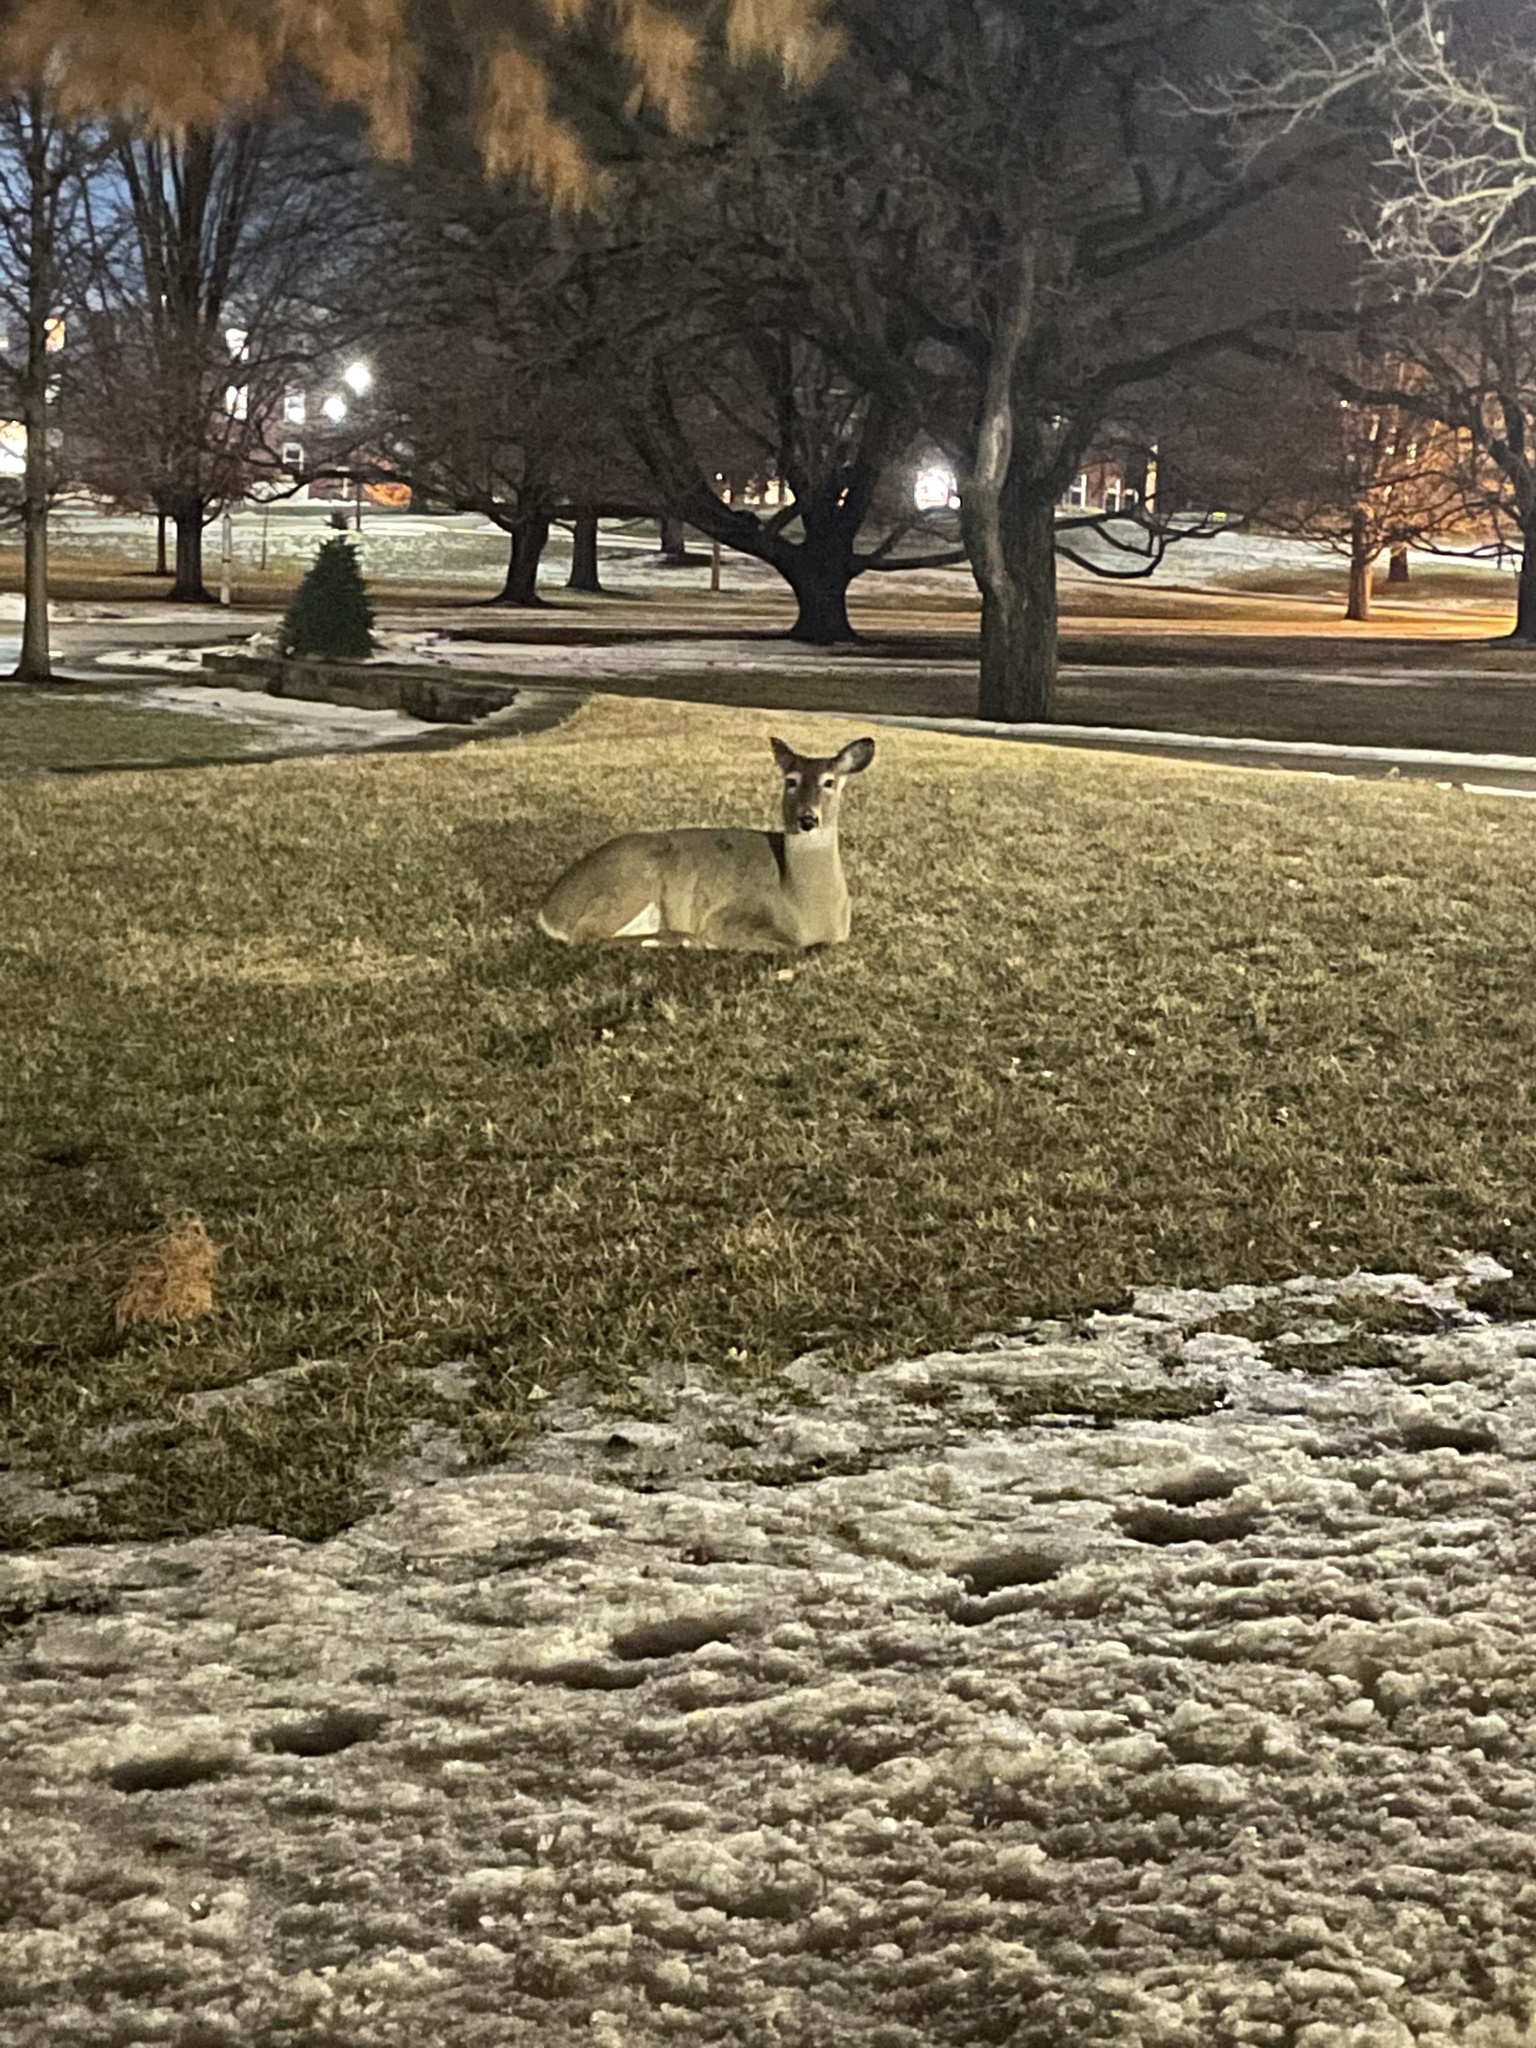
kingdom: Animalia
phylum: Chordata
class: Mammalia
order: Artiodactyla
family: Cervidae
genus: Odocoileus
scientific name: Odocoileus virginianus
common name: White-tailed deer
